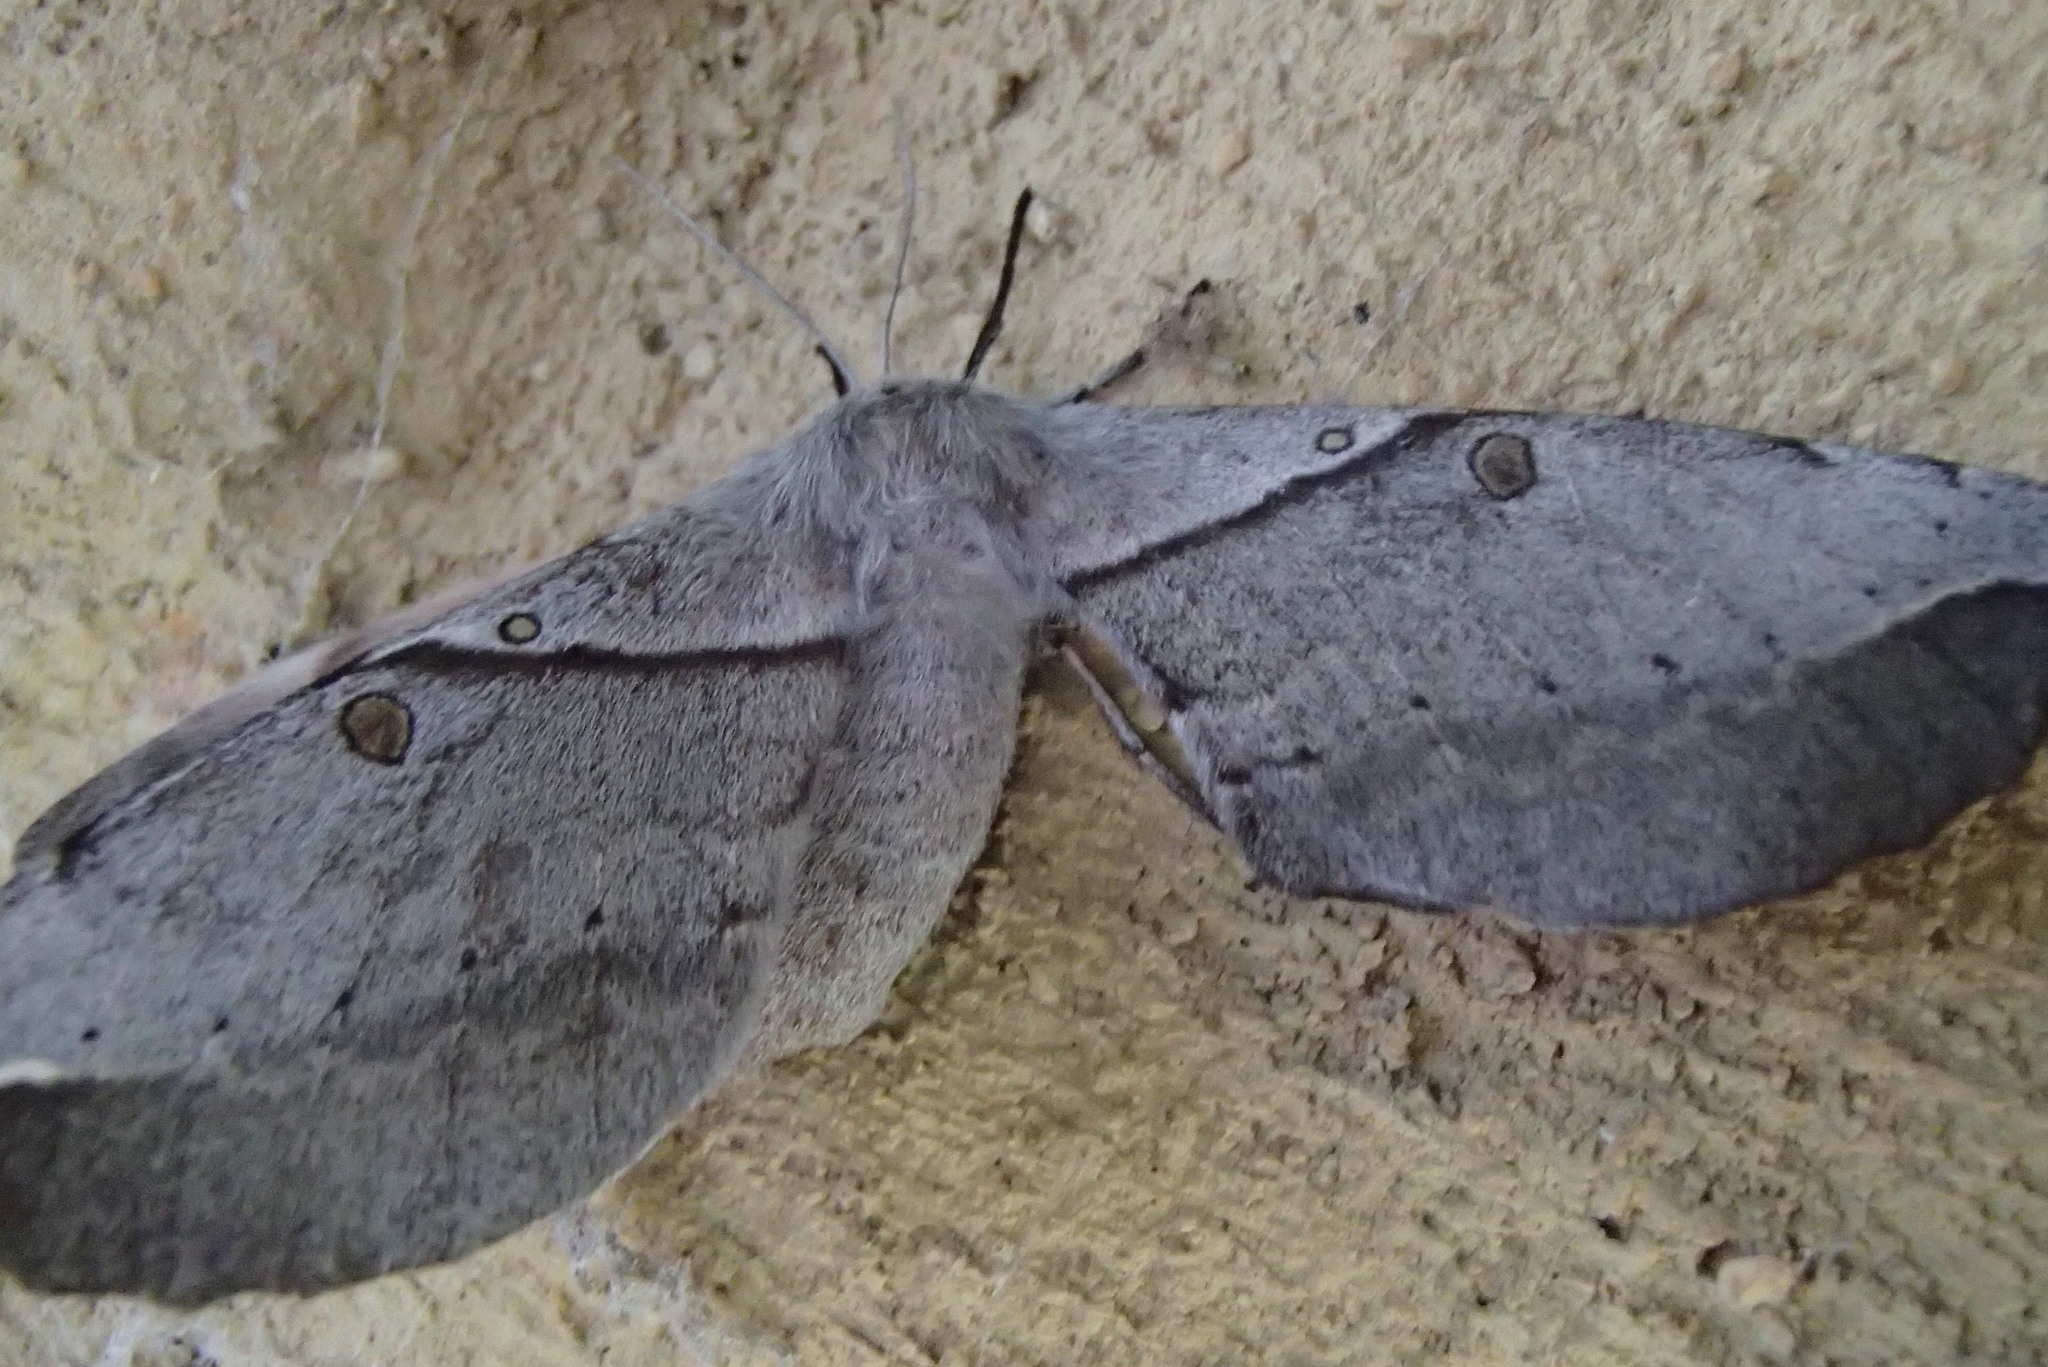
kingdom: Animalia
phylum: Arthropoda
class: Insecta
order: Lepidoptera
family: Anthelidae
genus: Chelepteryx
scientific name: Chelepteryx chalepteryx
